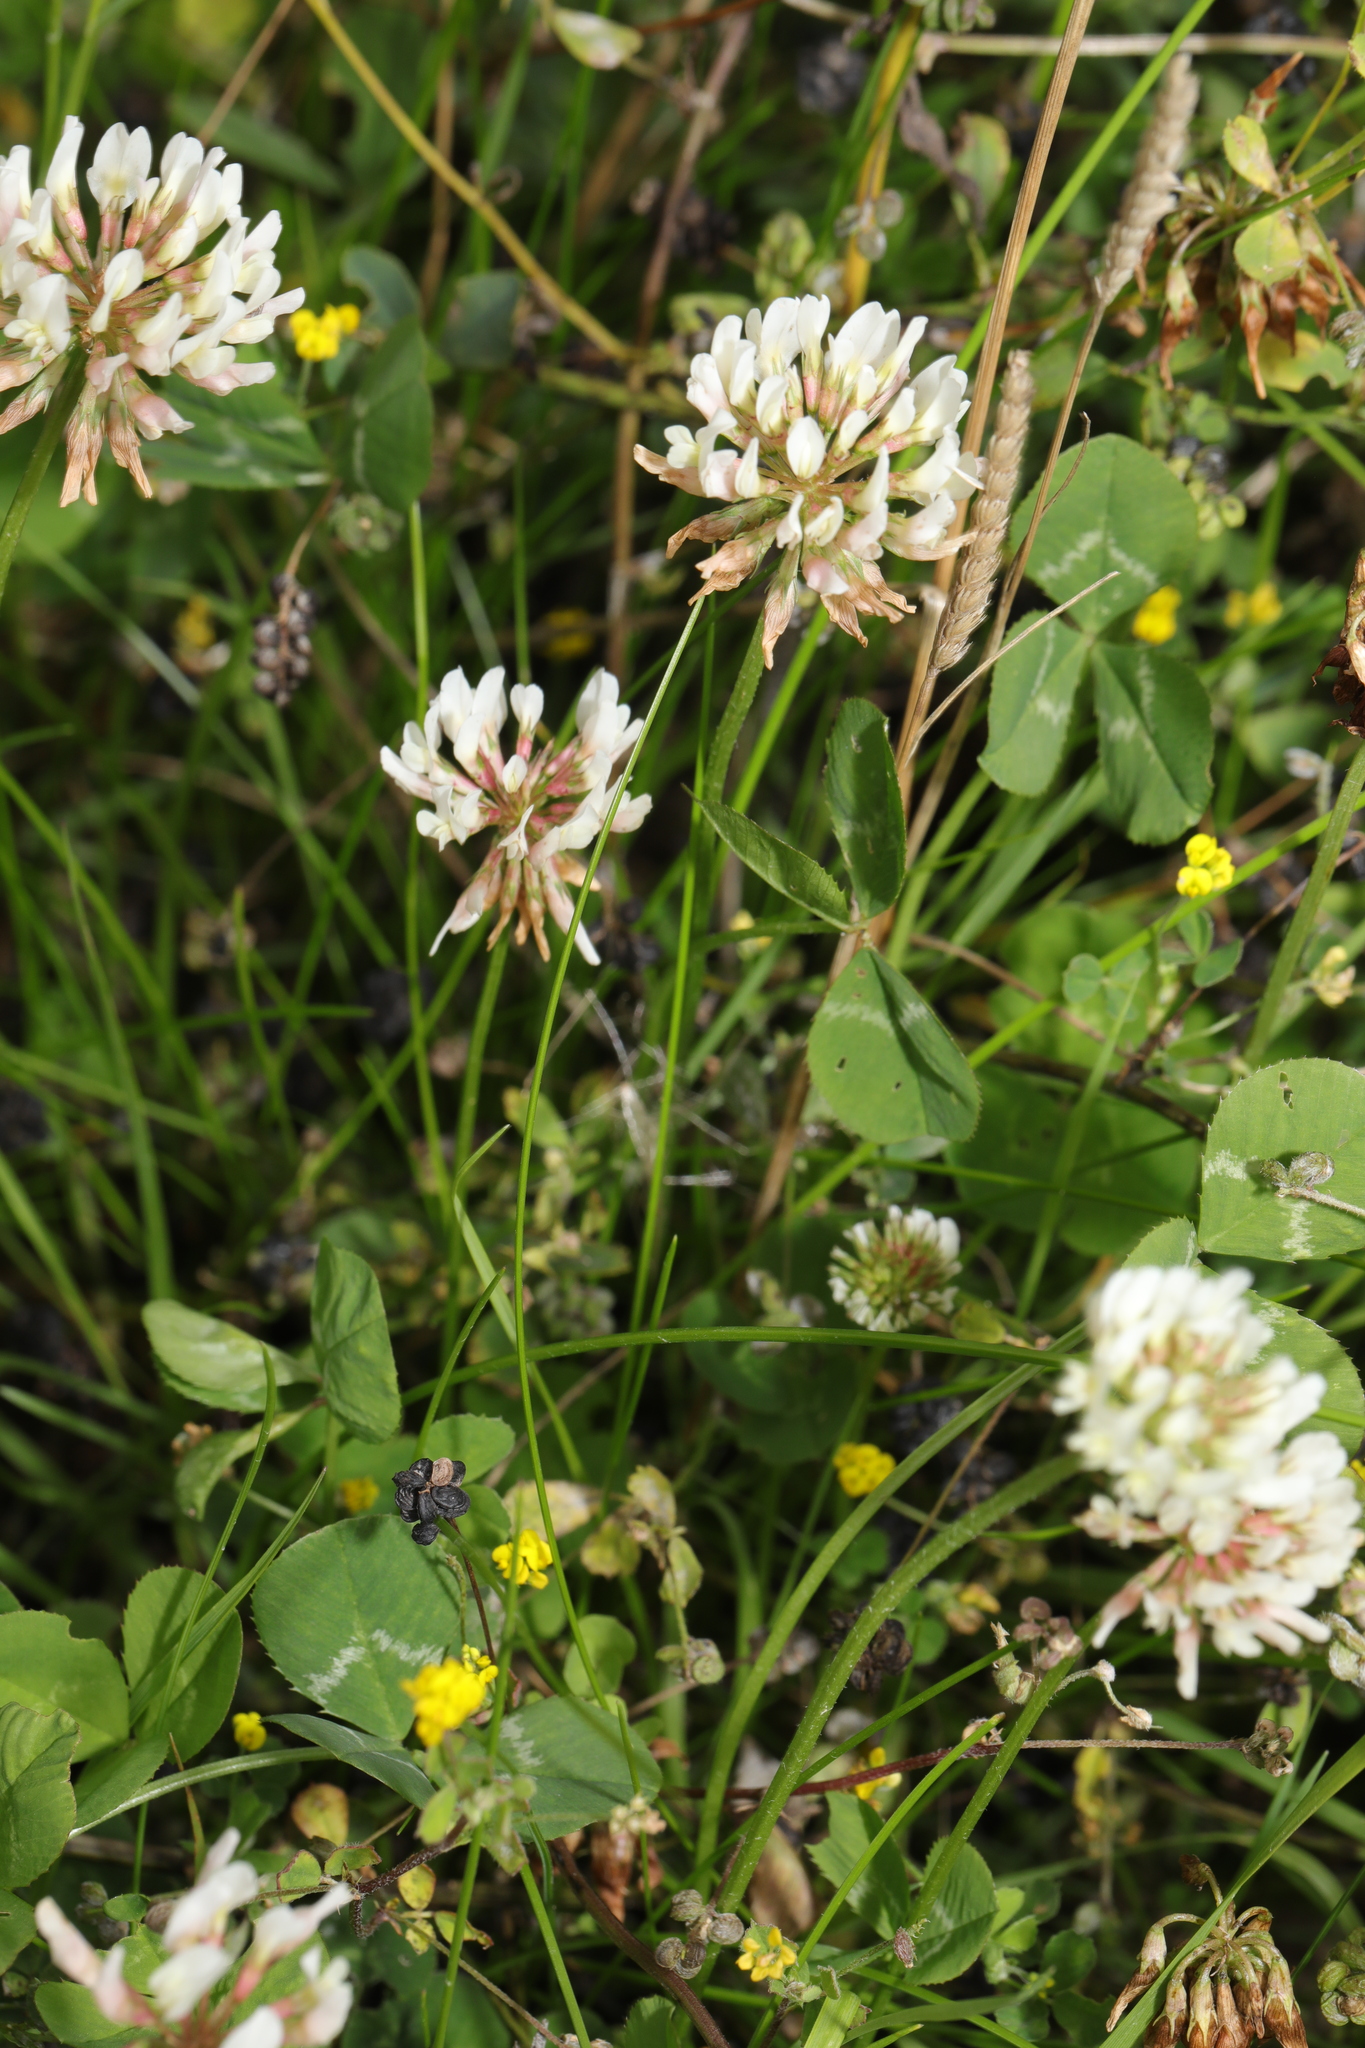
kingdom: Plantae
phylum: Tracheophyta
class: Magnoliopsida
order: Fabales
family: Fabaceae
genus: Trifolium
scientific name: Trifolium repens
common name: White clover
